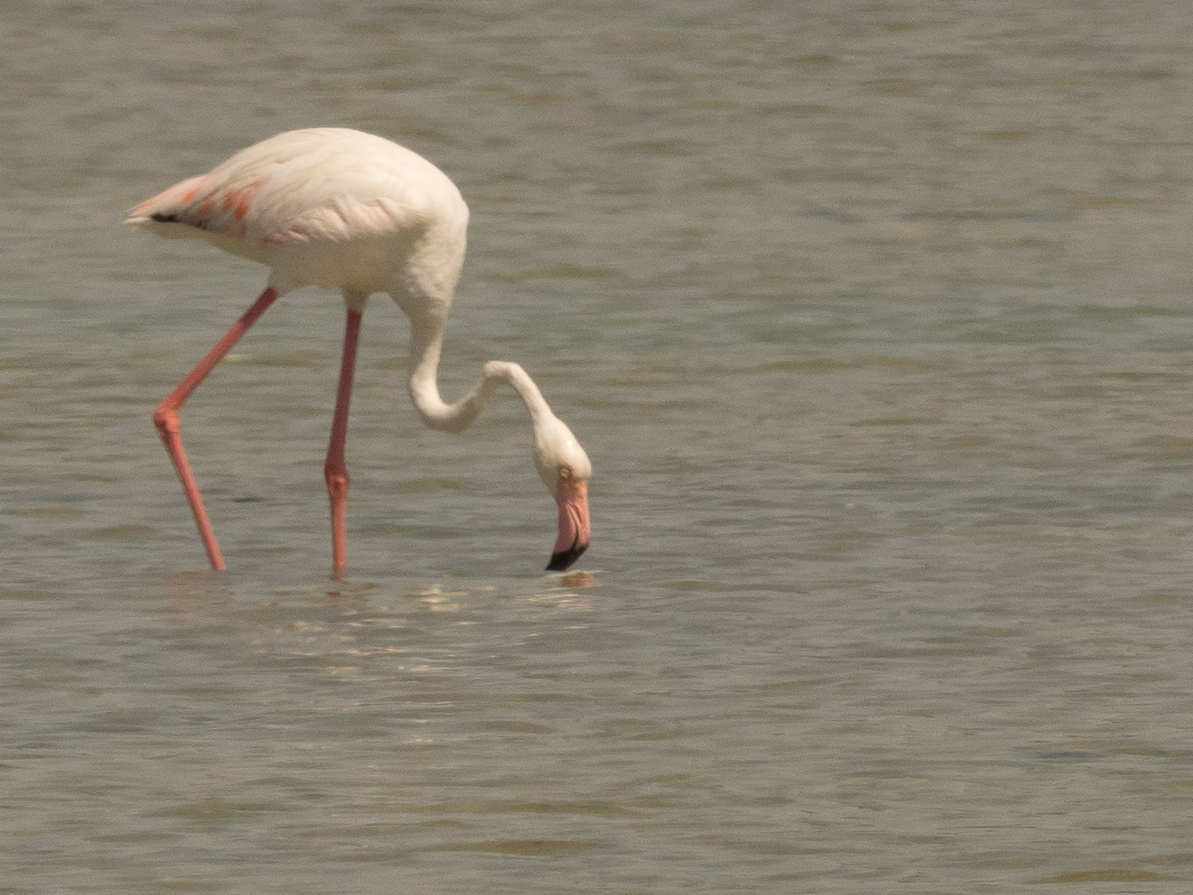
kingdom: Animalia
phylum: Chordata
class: Aves
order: Phoenicopteriformes
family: Phoenicopteridae
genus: Phoenicopterus
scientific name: Phoenicopterus roseus
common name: Greater flamingo
